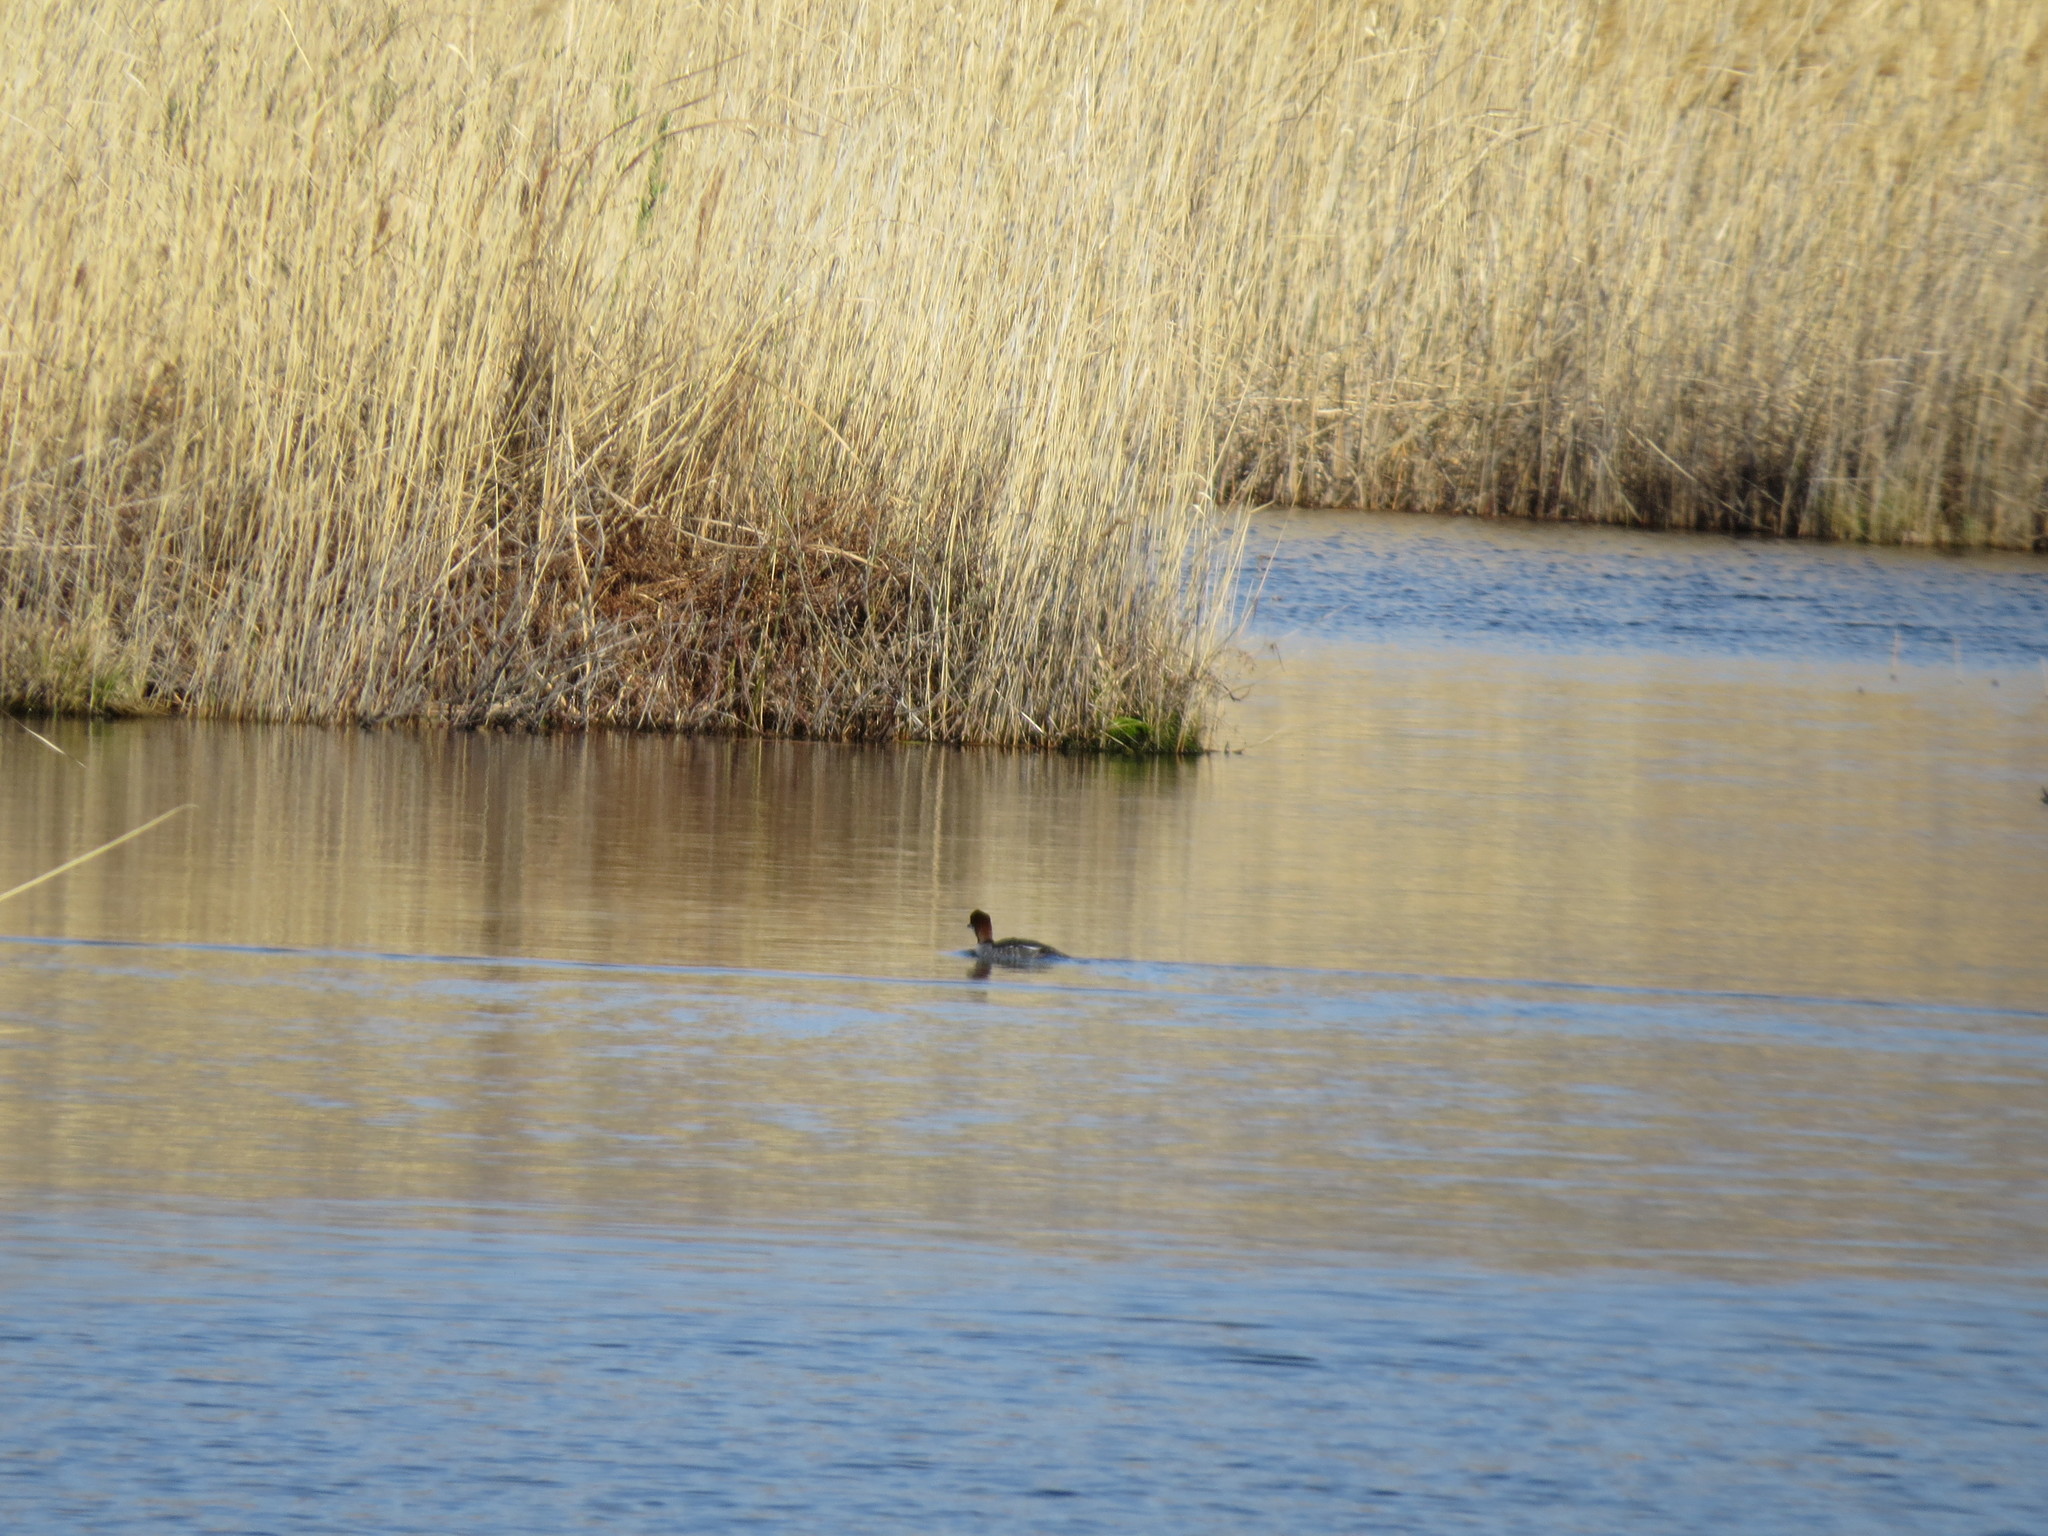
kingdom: Animalia
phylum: Chordata
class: Aves
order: Anseriformes
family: Anatidae
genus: Mergellus
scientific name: Mergellus albellus
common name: Smew
